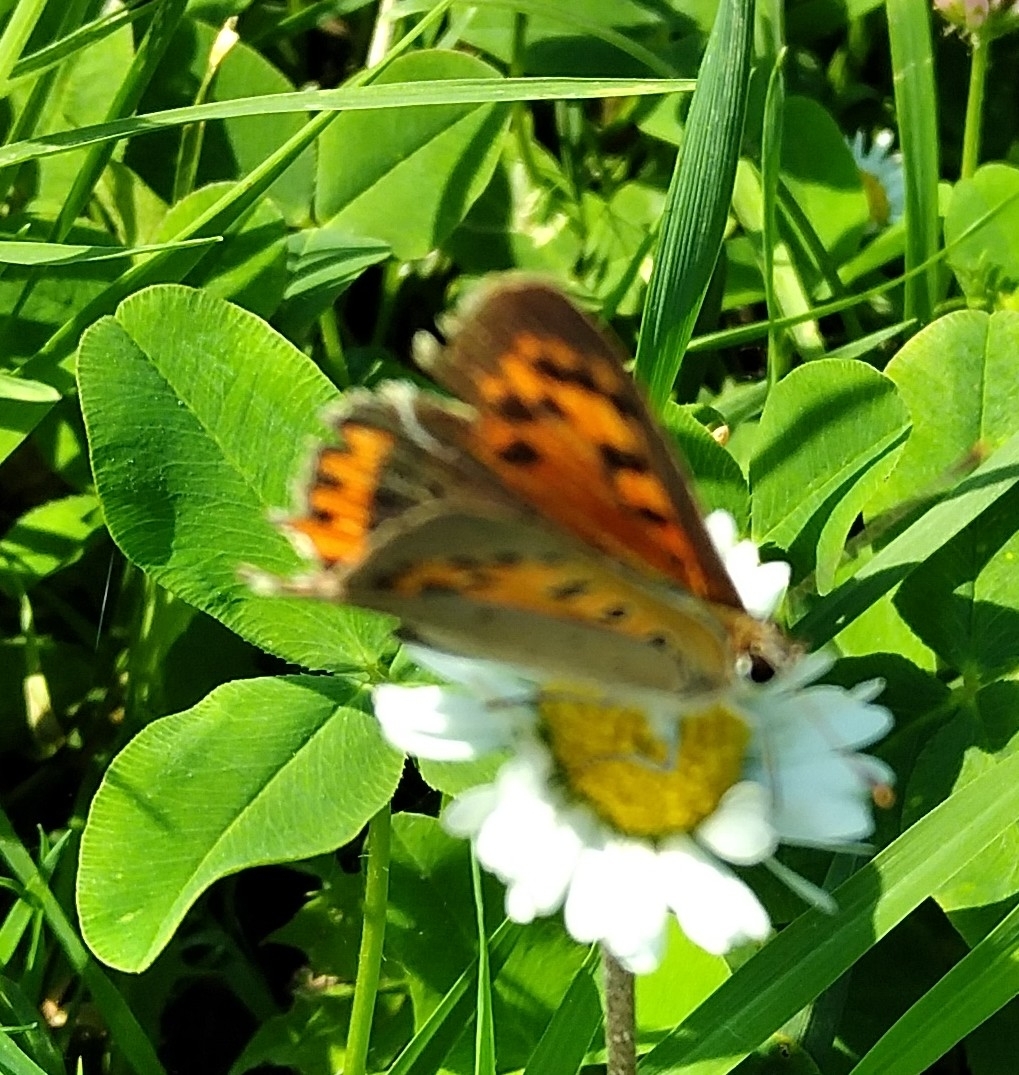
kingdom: Animalia
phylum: Arthropoda
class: Insecta
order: Lepidoptera
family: Lycaenidae
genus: Lycaena
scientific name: Lycaena phlaeas
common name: Small copper
